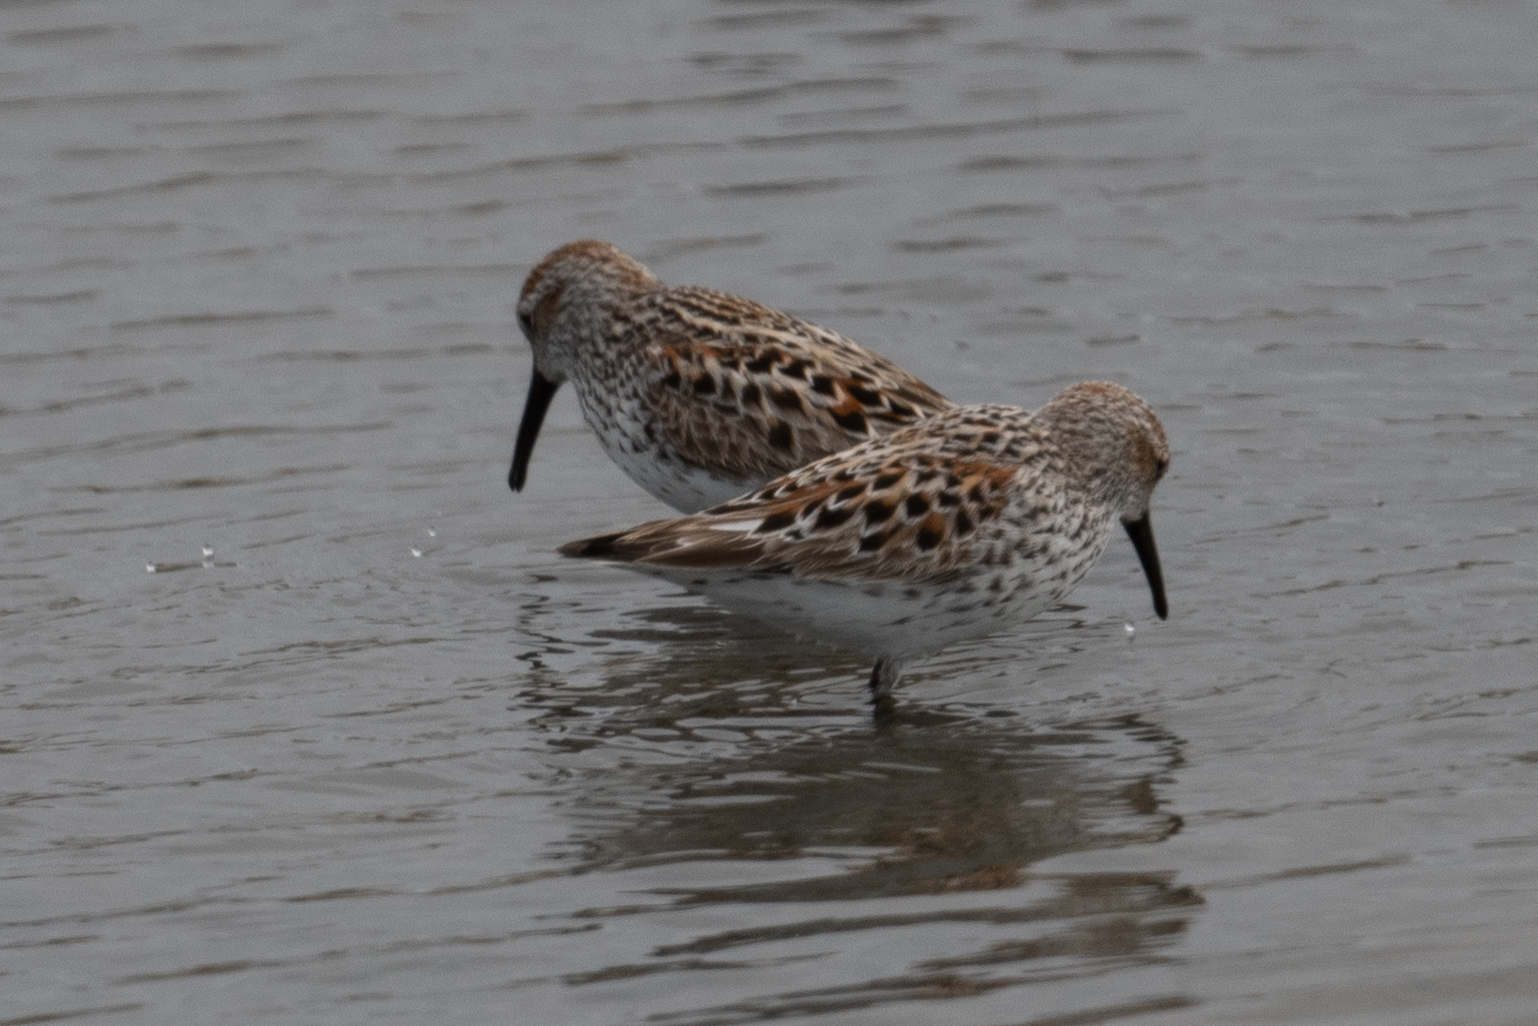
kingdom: Animalia
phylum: Chordata
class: Aves
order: Charadriiformes
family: Scolopacidae
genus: Calidris
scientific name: Calidris mauri
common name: Western sandpiper
